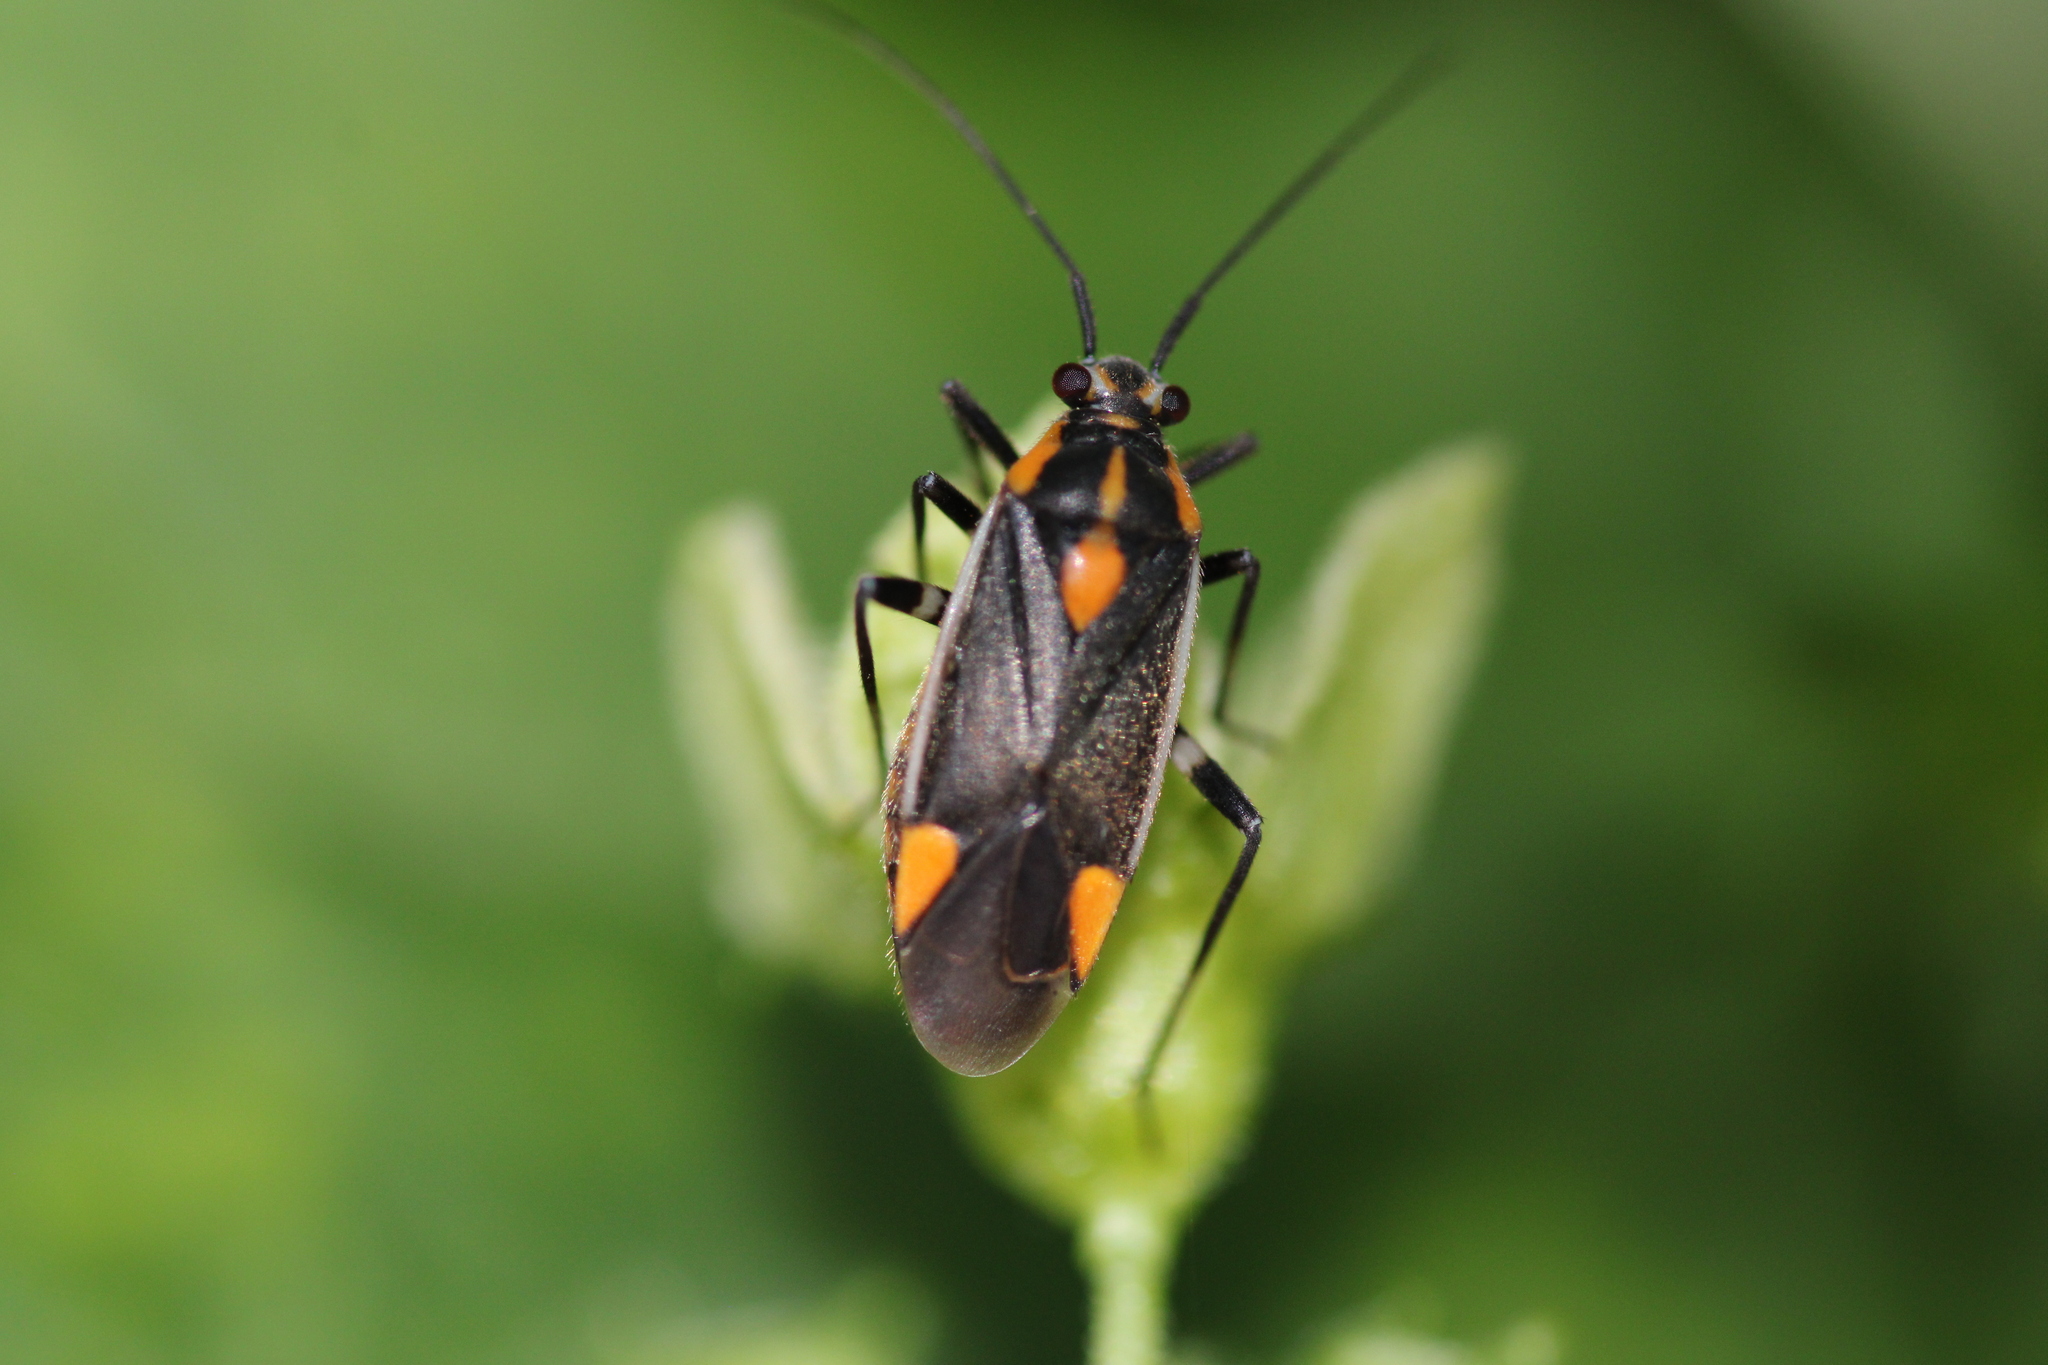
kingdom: Animalia
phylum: Arthropoda
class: Insecta
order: Hemiptera
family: Miridae
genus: Capsodes
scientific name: Capsodes flavomarginatus
